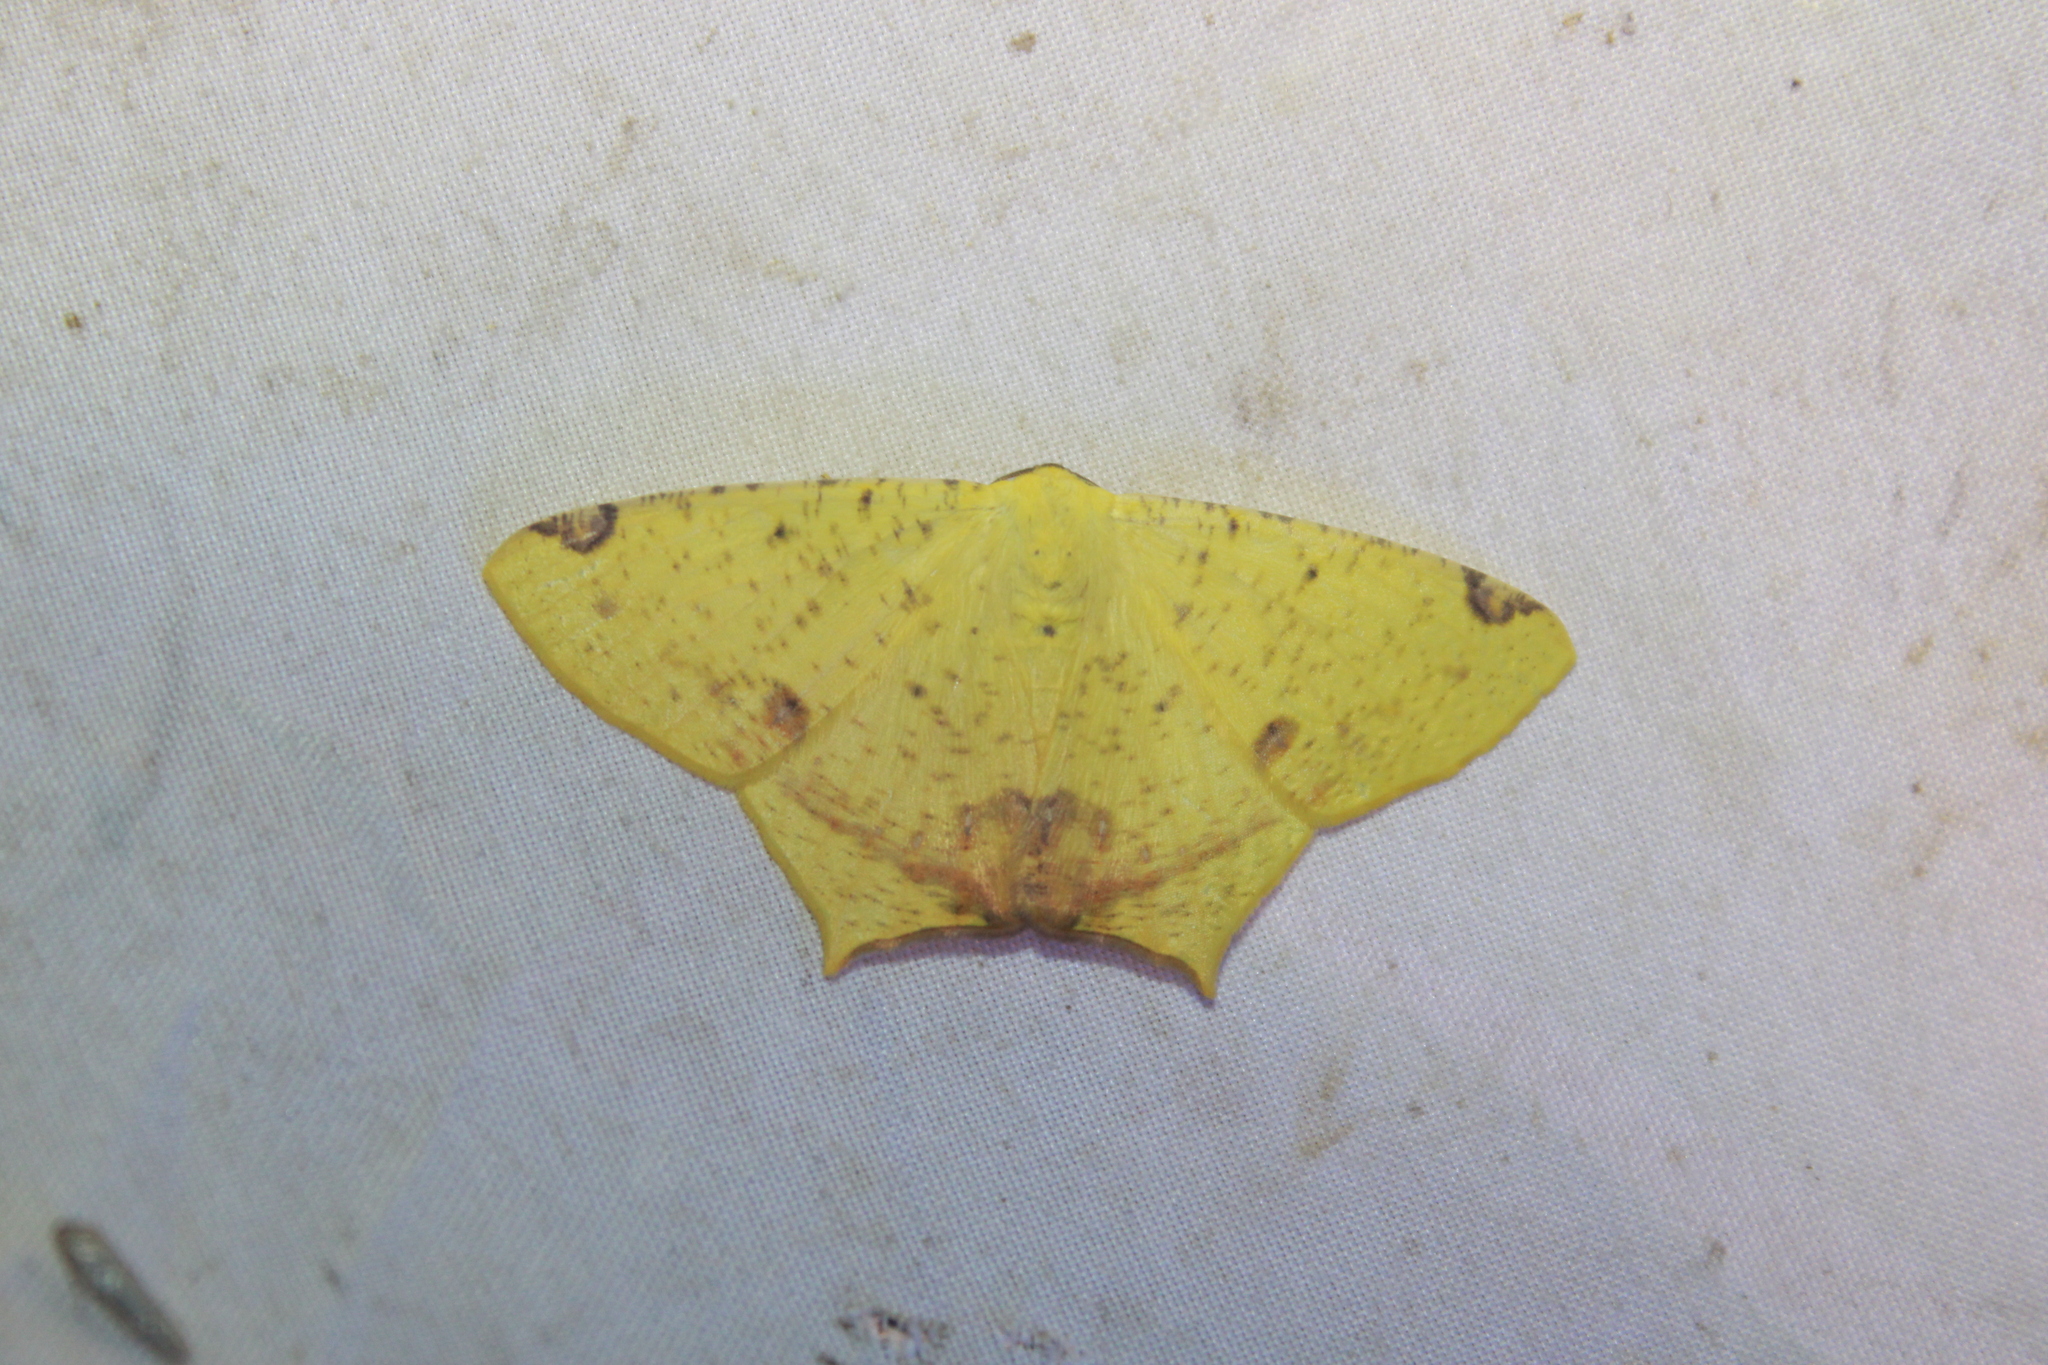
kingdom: Animalia
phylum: Arthropoda
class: Insecta
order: Lepidoptera
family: Geometridae
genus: Nepheloleuca
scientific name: Nepheloleuca floridata
